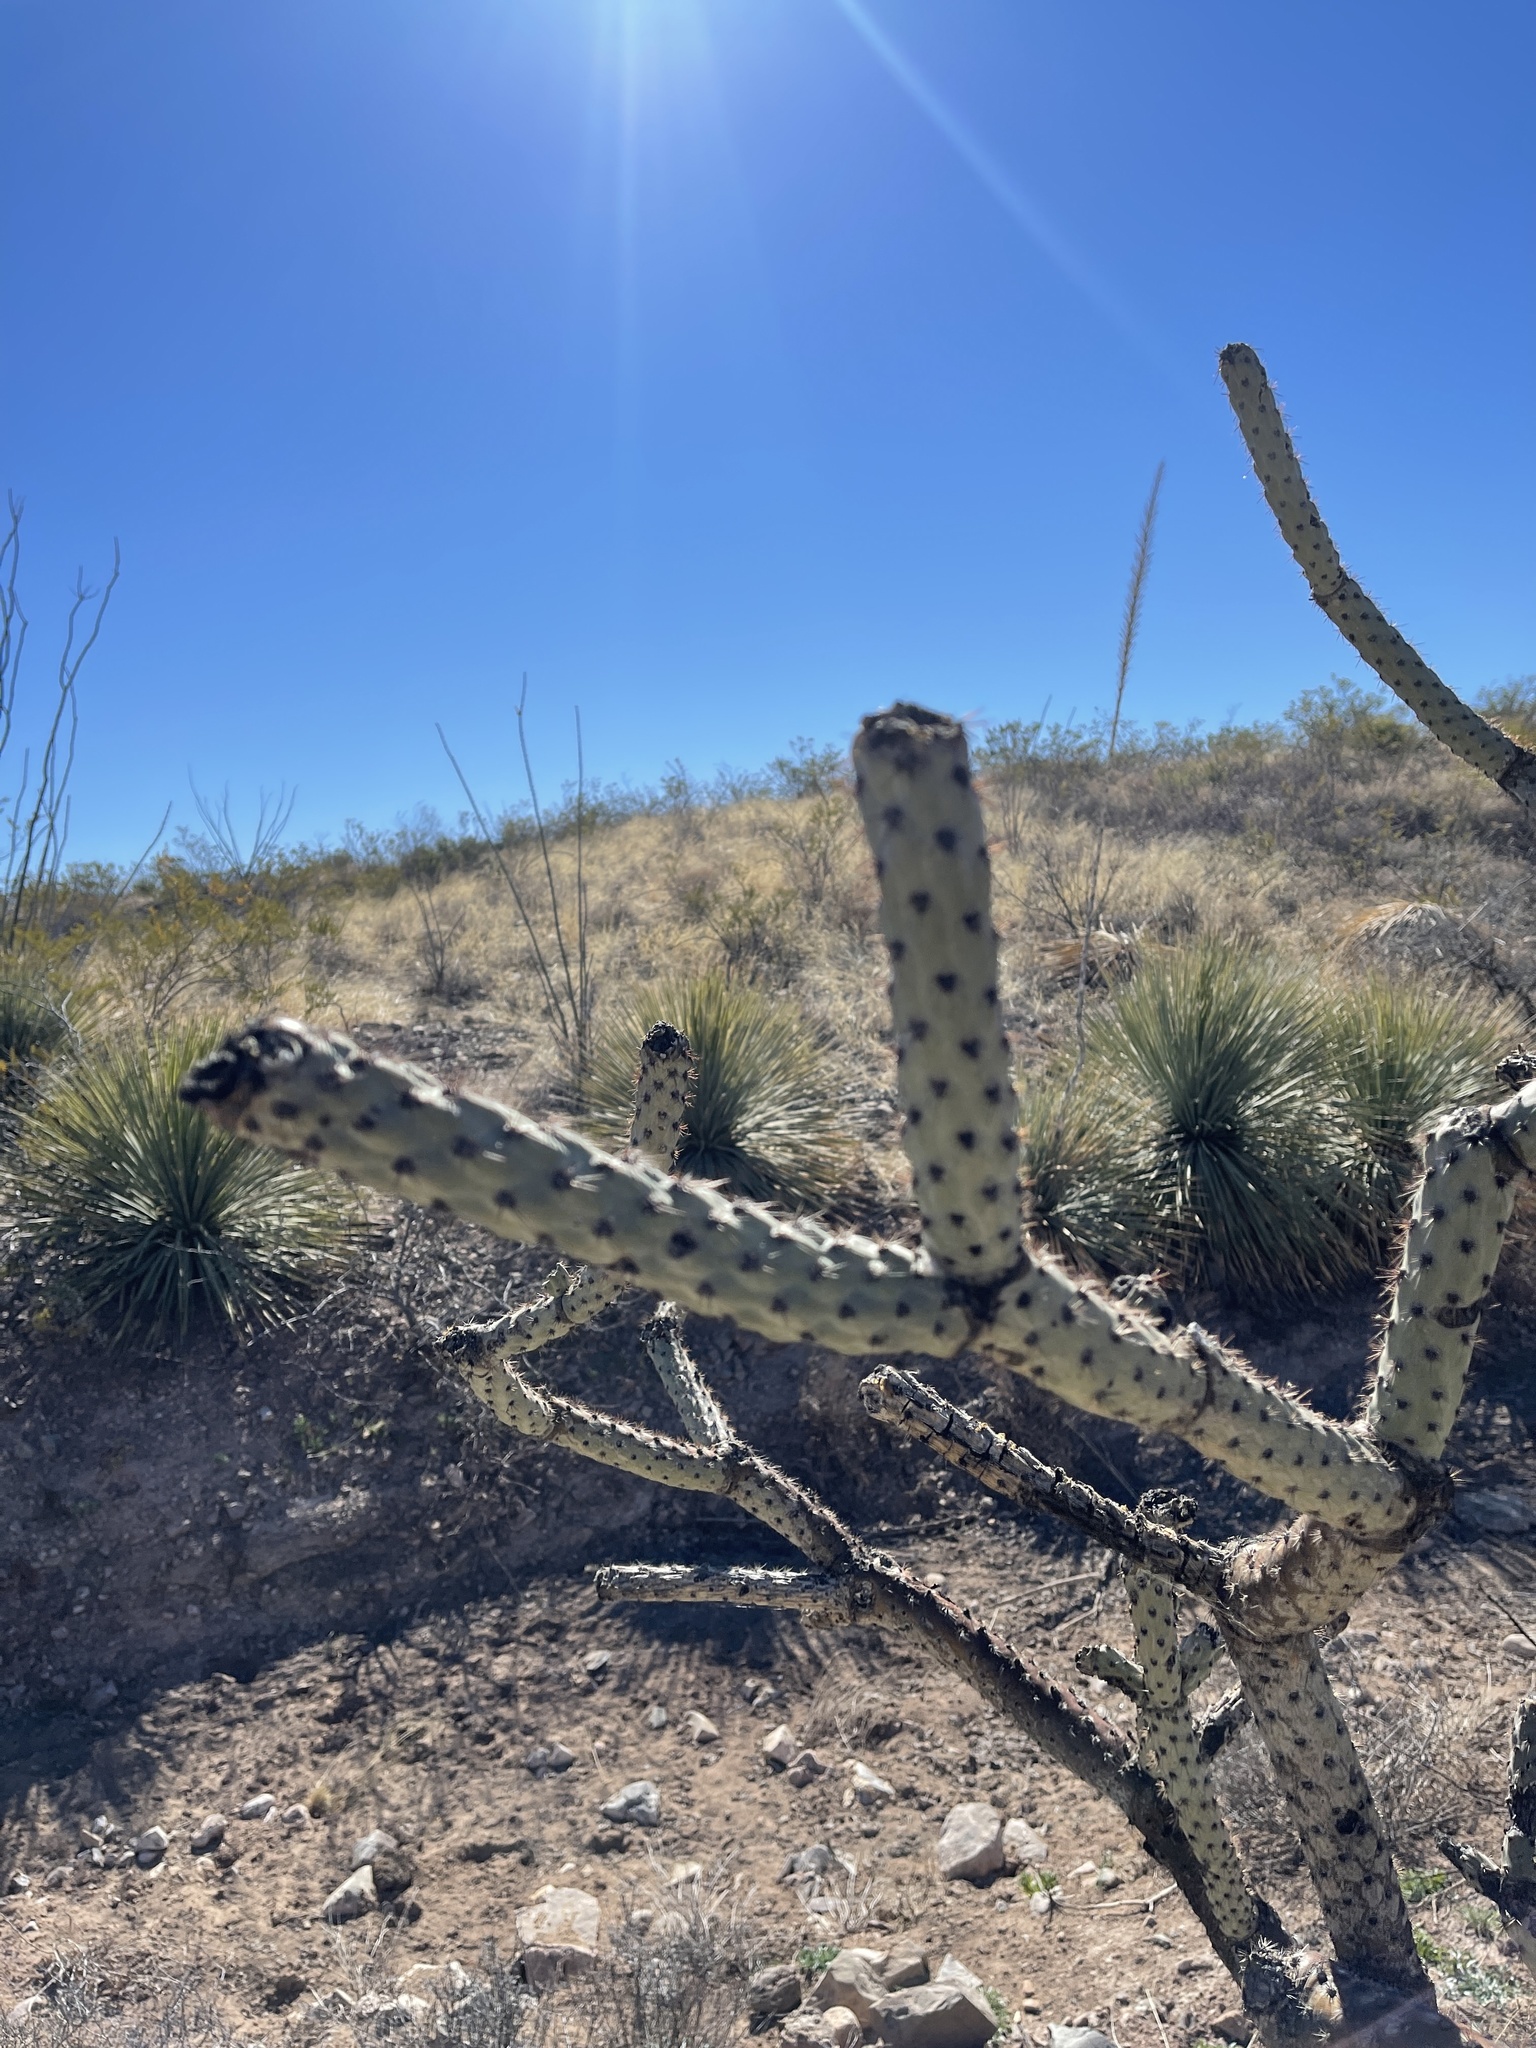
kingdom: Plantae
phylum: Tracheophyta
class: Magnoliopsida
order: Caryophyllales
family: Cactaceae
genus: Cylindropuntia
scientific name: Cylindropuntia thurberi
